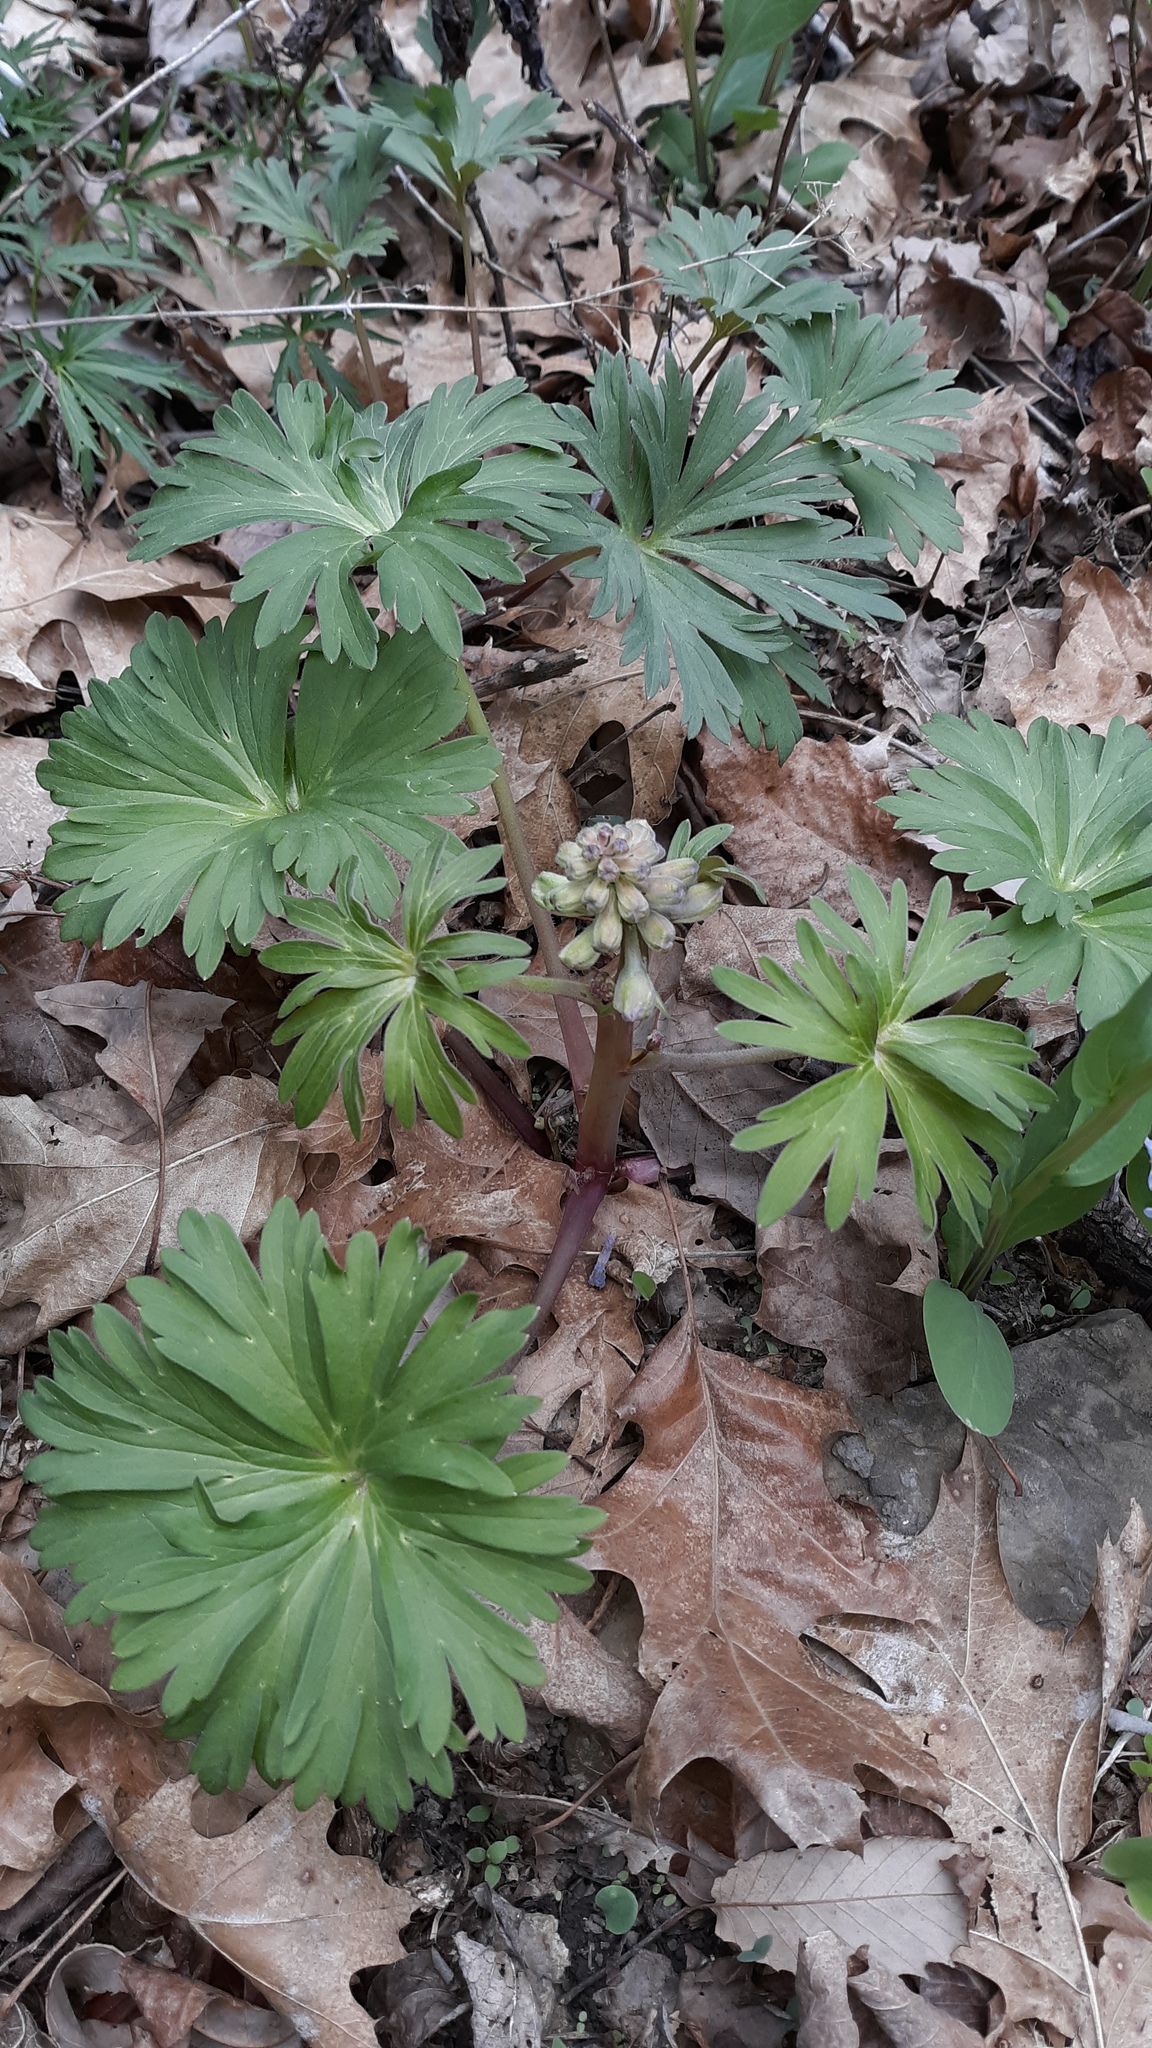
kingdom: Plantae
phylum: Tracheophyta
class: Magnoliopsida
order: Ranunculales
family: Ranunculaceae
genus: Delphinium
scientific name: Delphinium tricorne
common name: Dwarf larkspur
